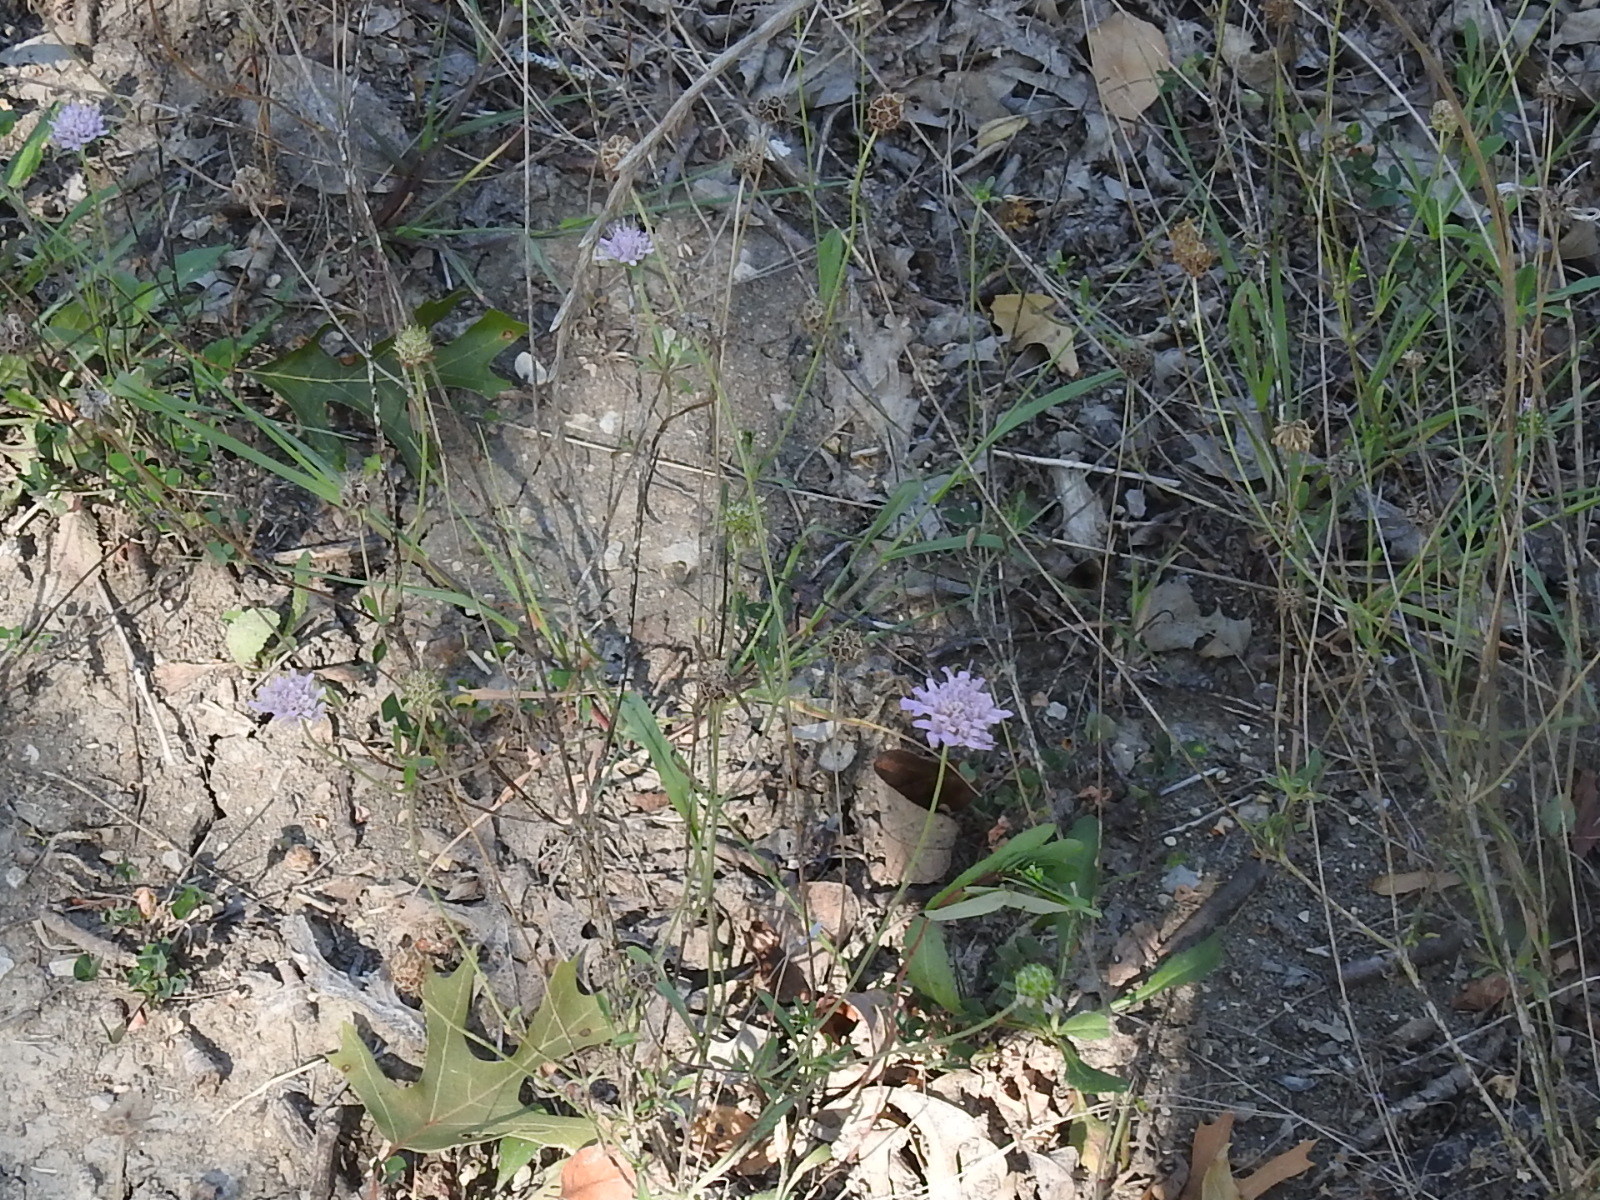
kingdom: Plantae
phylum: Tracheophyta
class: Magnoliopsida
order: Dipsacales
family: Caprifoliaceae
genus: Sixalix
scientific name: Sixalix atropurpurea
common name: Sweet scabious
